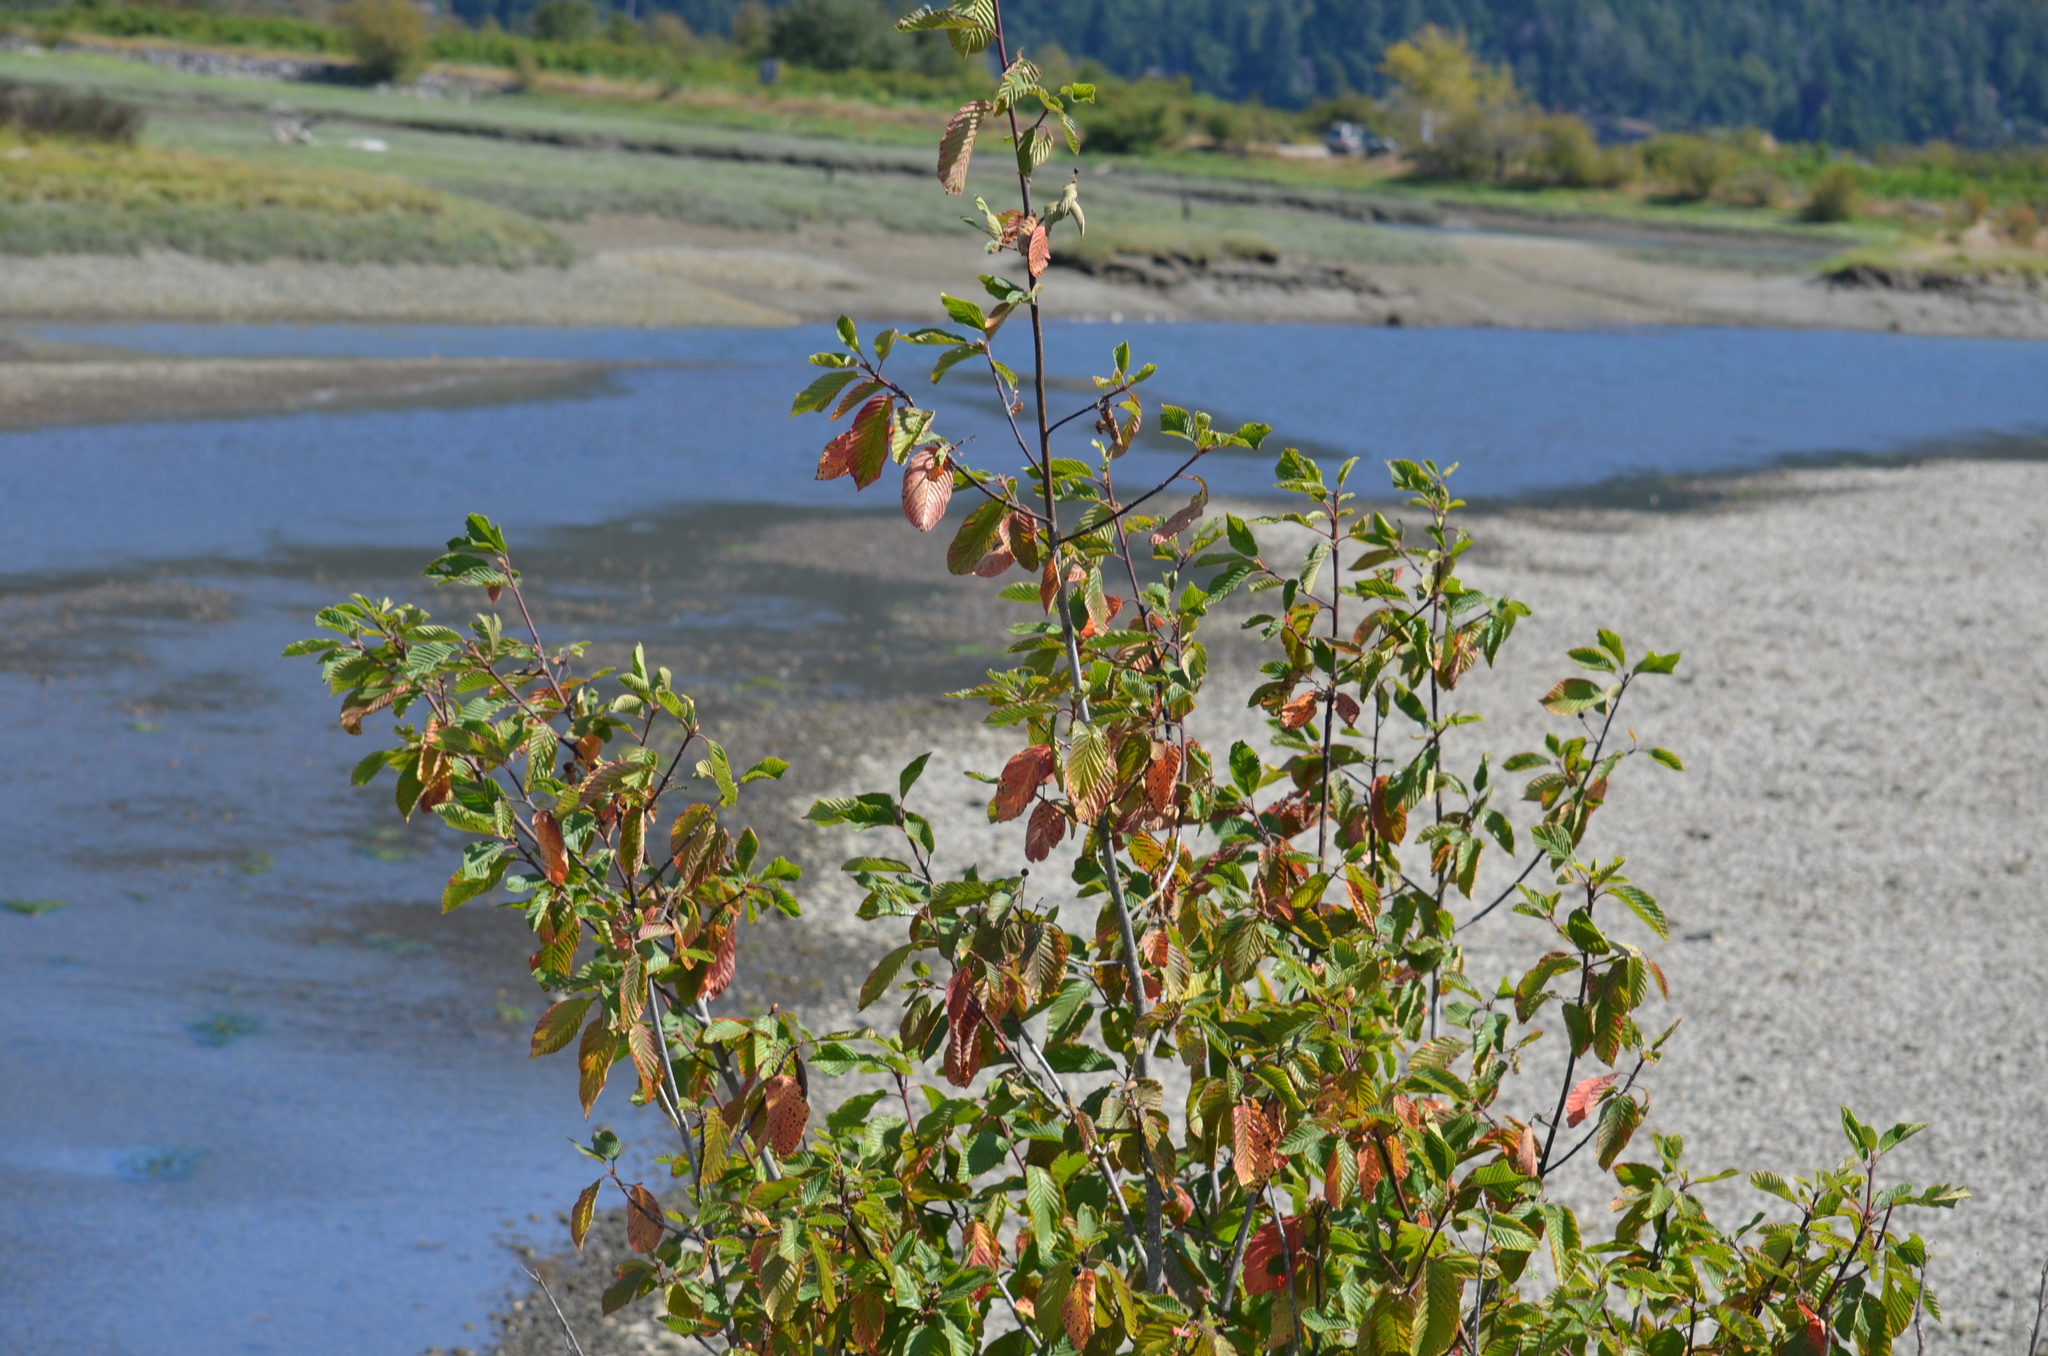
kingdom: Plantae
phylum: Tracheophyta
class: Magnoliopsida
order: Rosales
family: Rhamnaceae
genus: Frangula
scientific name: Frangula purshiana
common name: Cascara buckthorn
